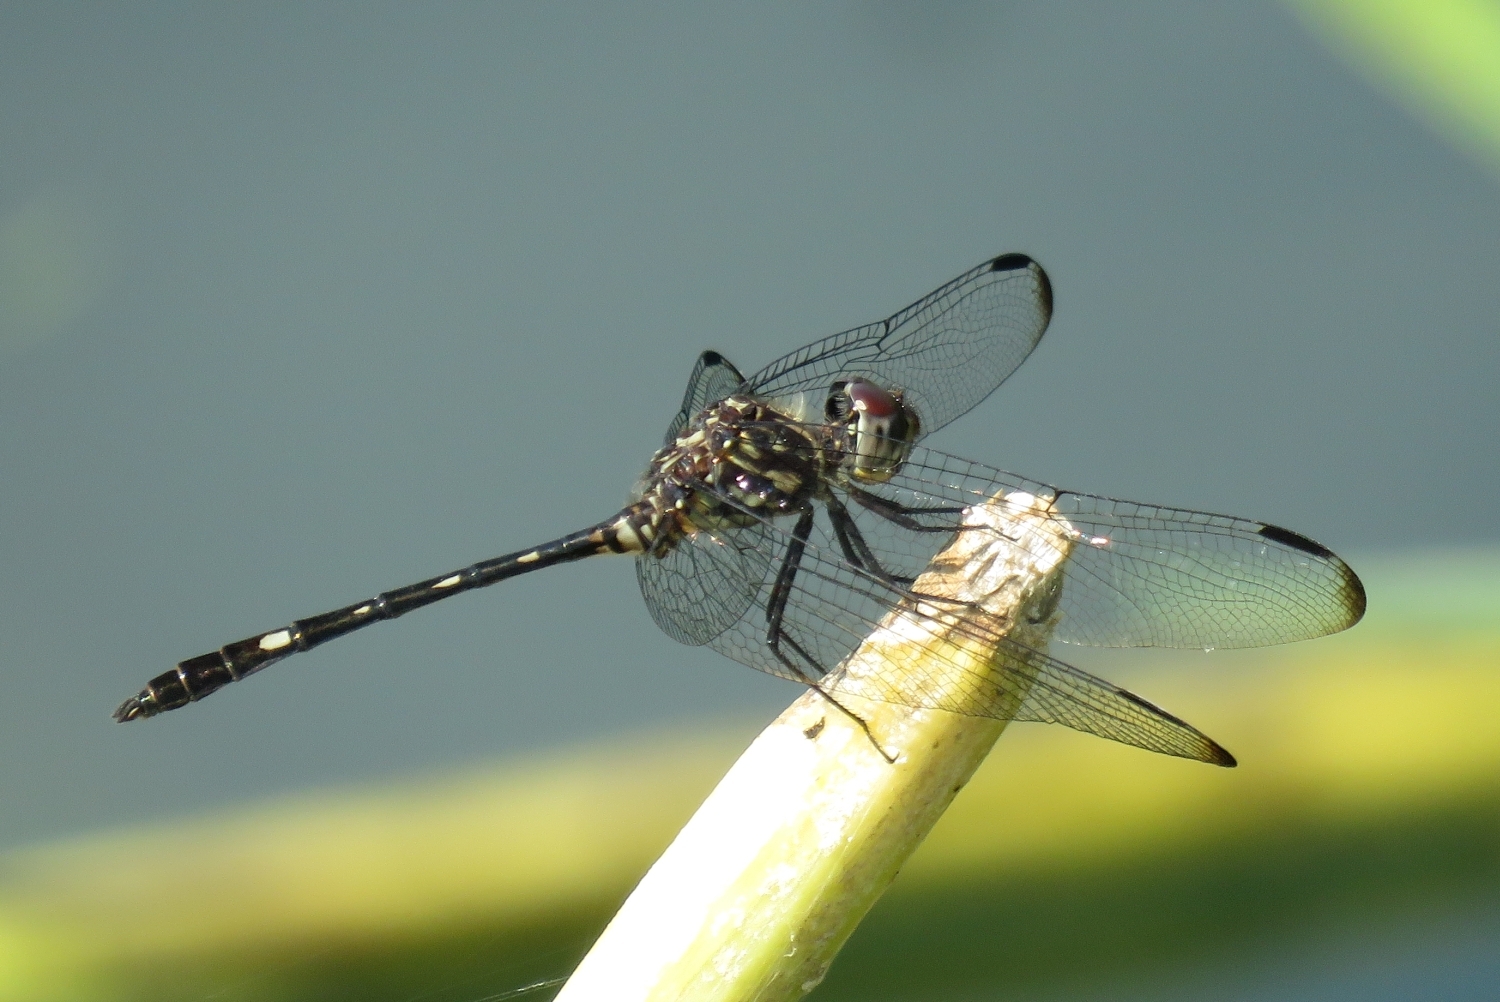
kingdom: Animalia
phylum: Arthropoda
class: Insecta
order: Odonata
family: Libellulidae
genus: Dythemis
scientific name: Dythemis velox
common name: Swift setwing
